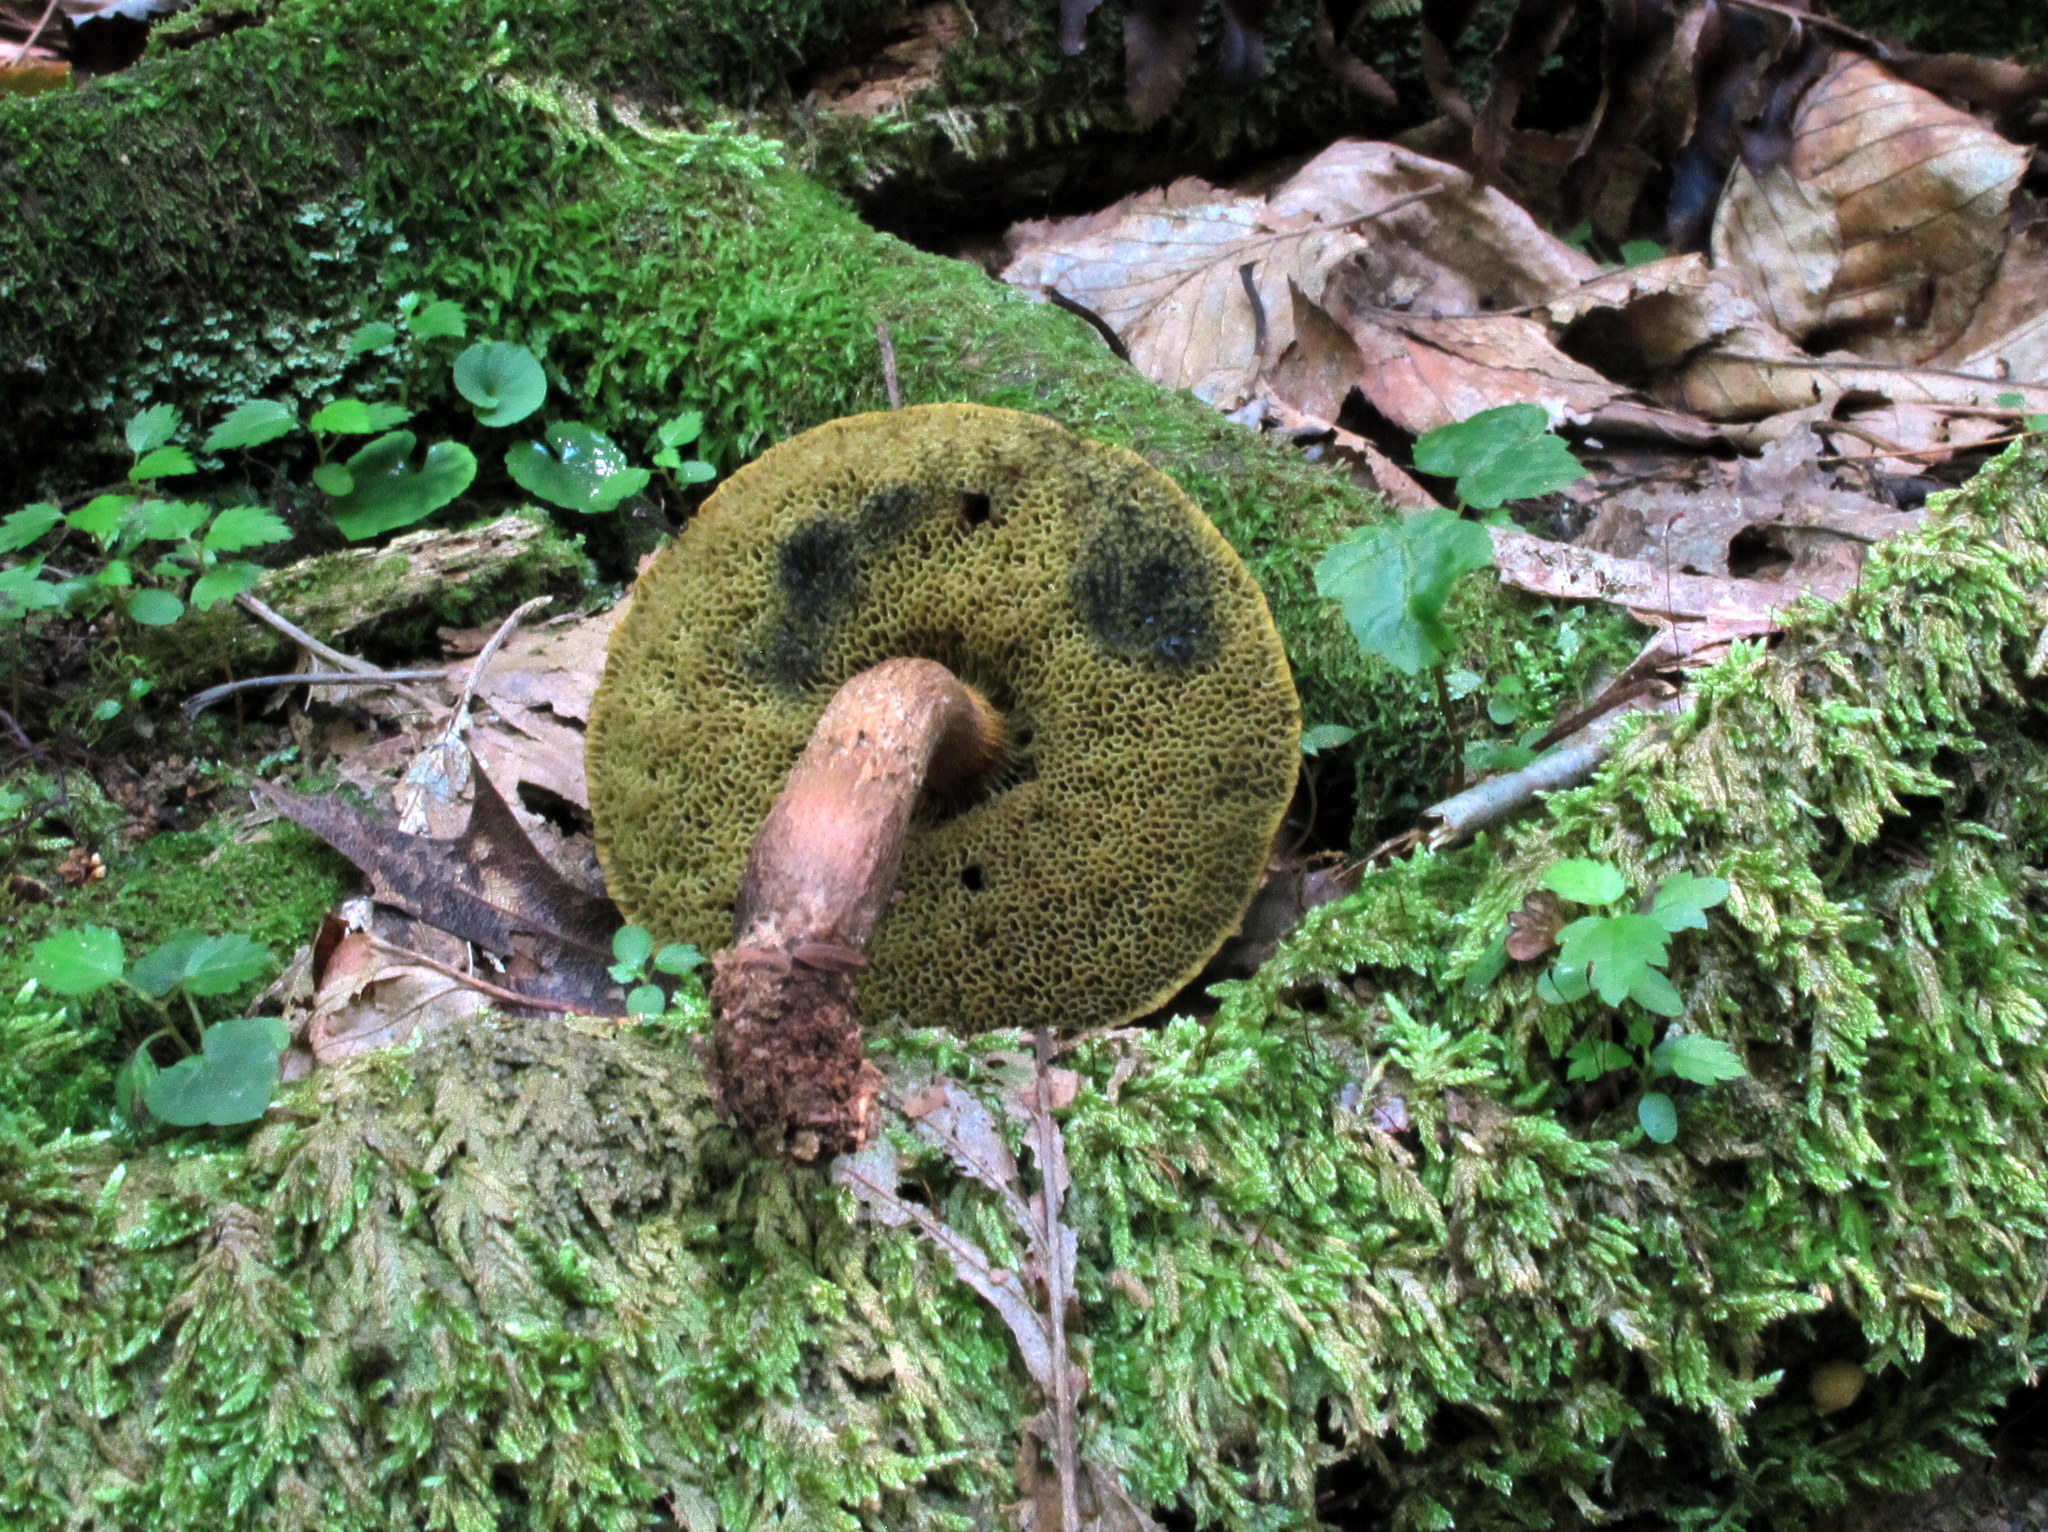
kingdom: Fungi
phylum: Basidiomycota
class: Agaricomycetes
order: Boletales
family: Boletaceae
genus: Boletellus
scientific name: Boletellus chrysenteroides
